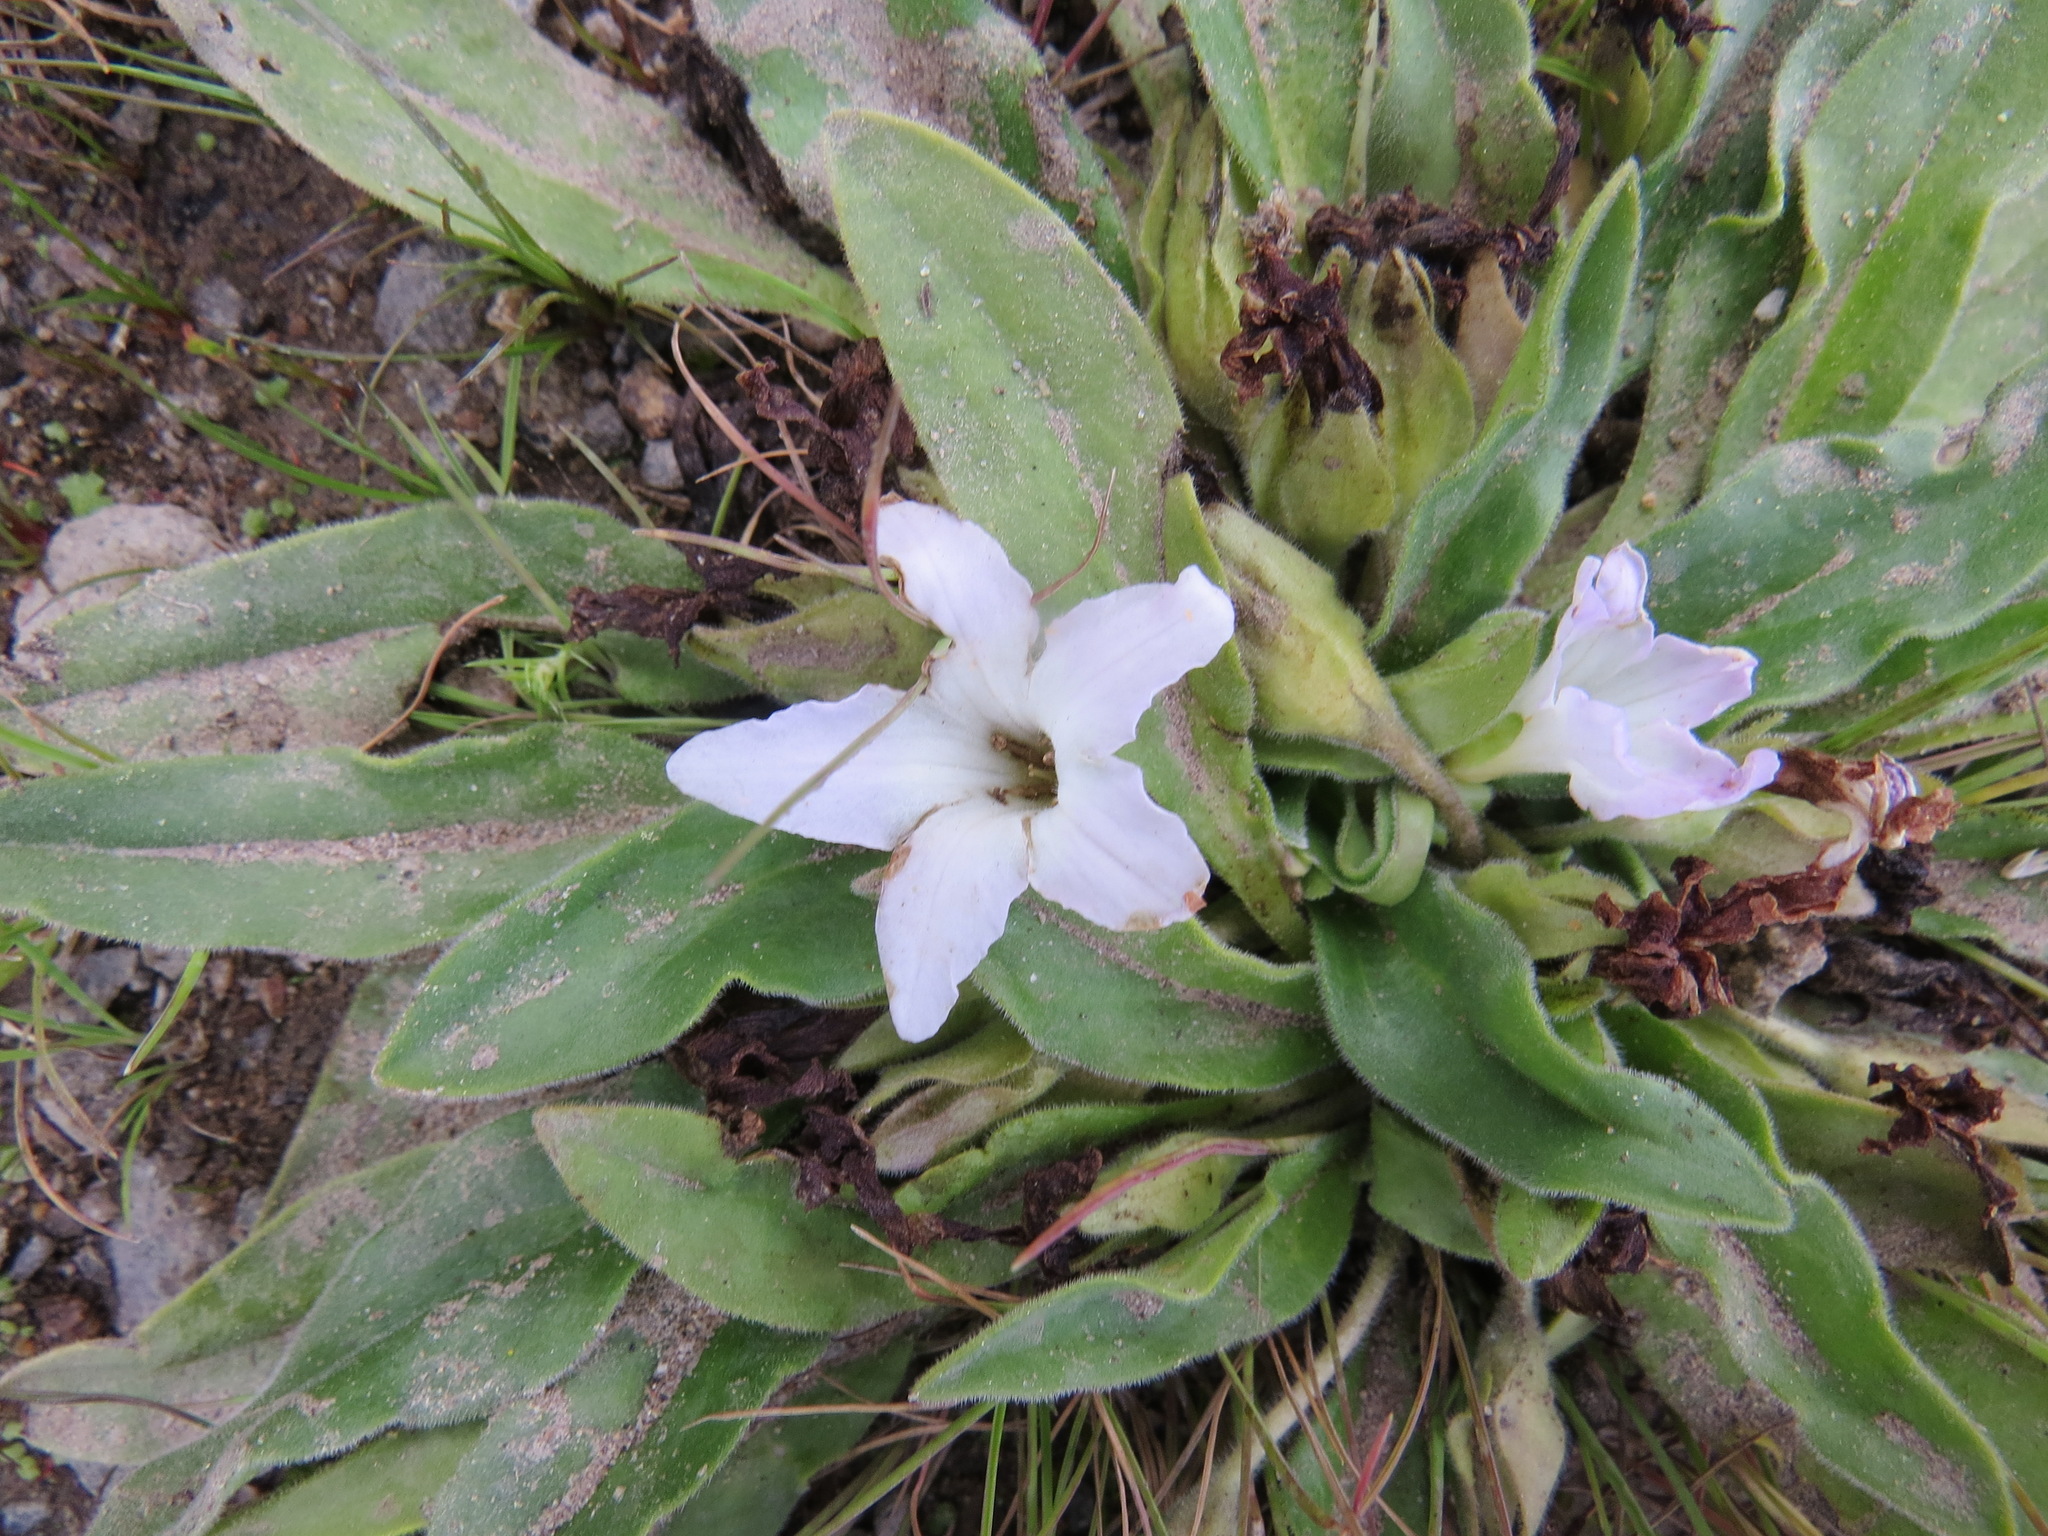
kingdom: Plantae
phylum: Tracheophyta
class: Magnoliopsida
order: Boraginales
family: Hydrophyllaceae
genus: Hesperochiron
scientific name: Hesperochiron californicus
